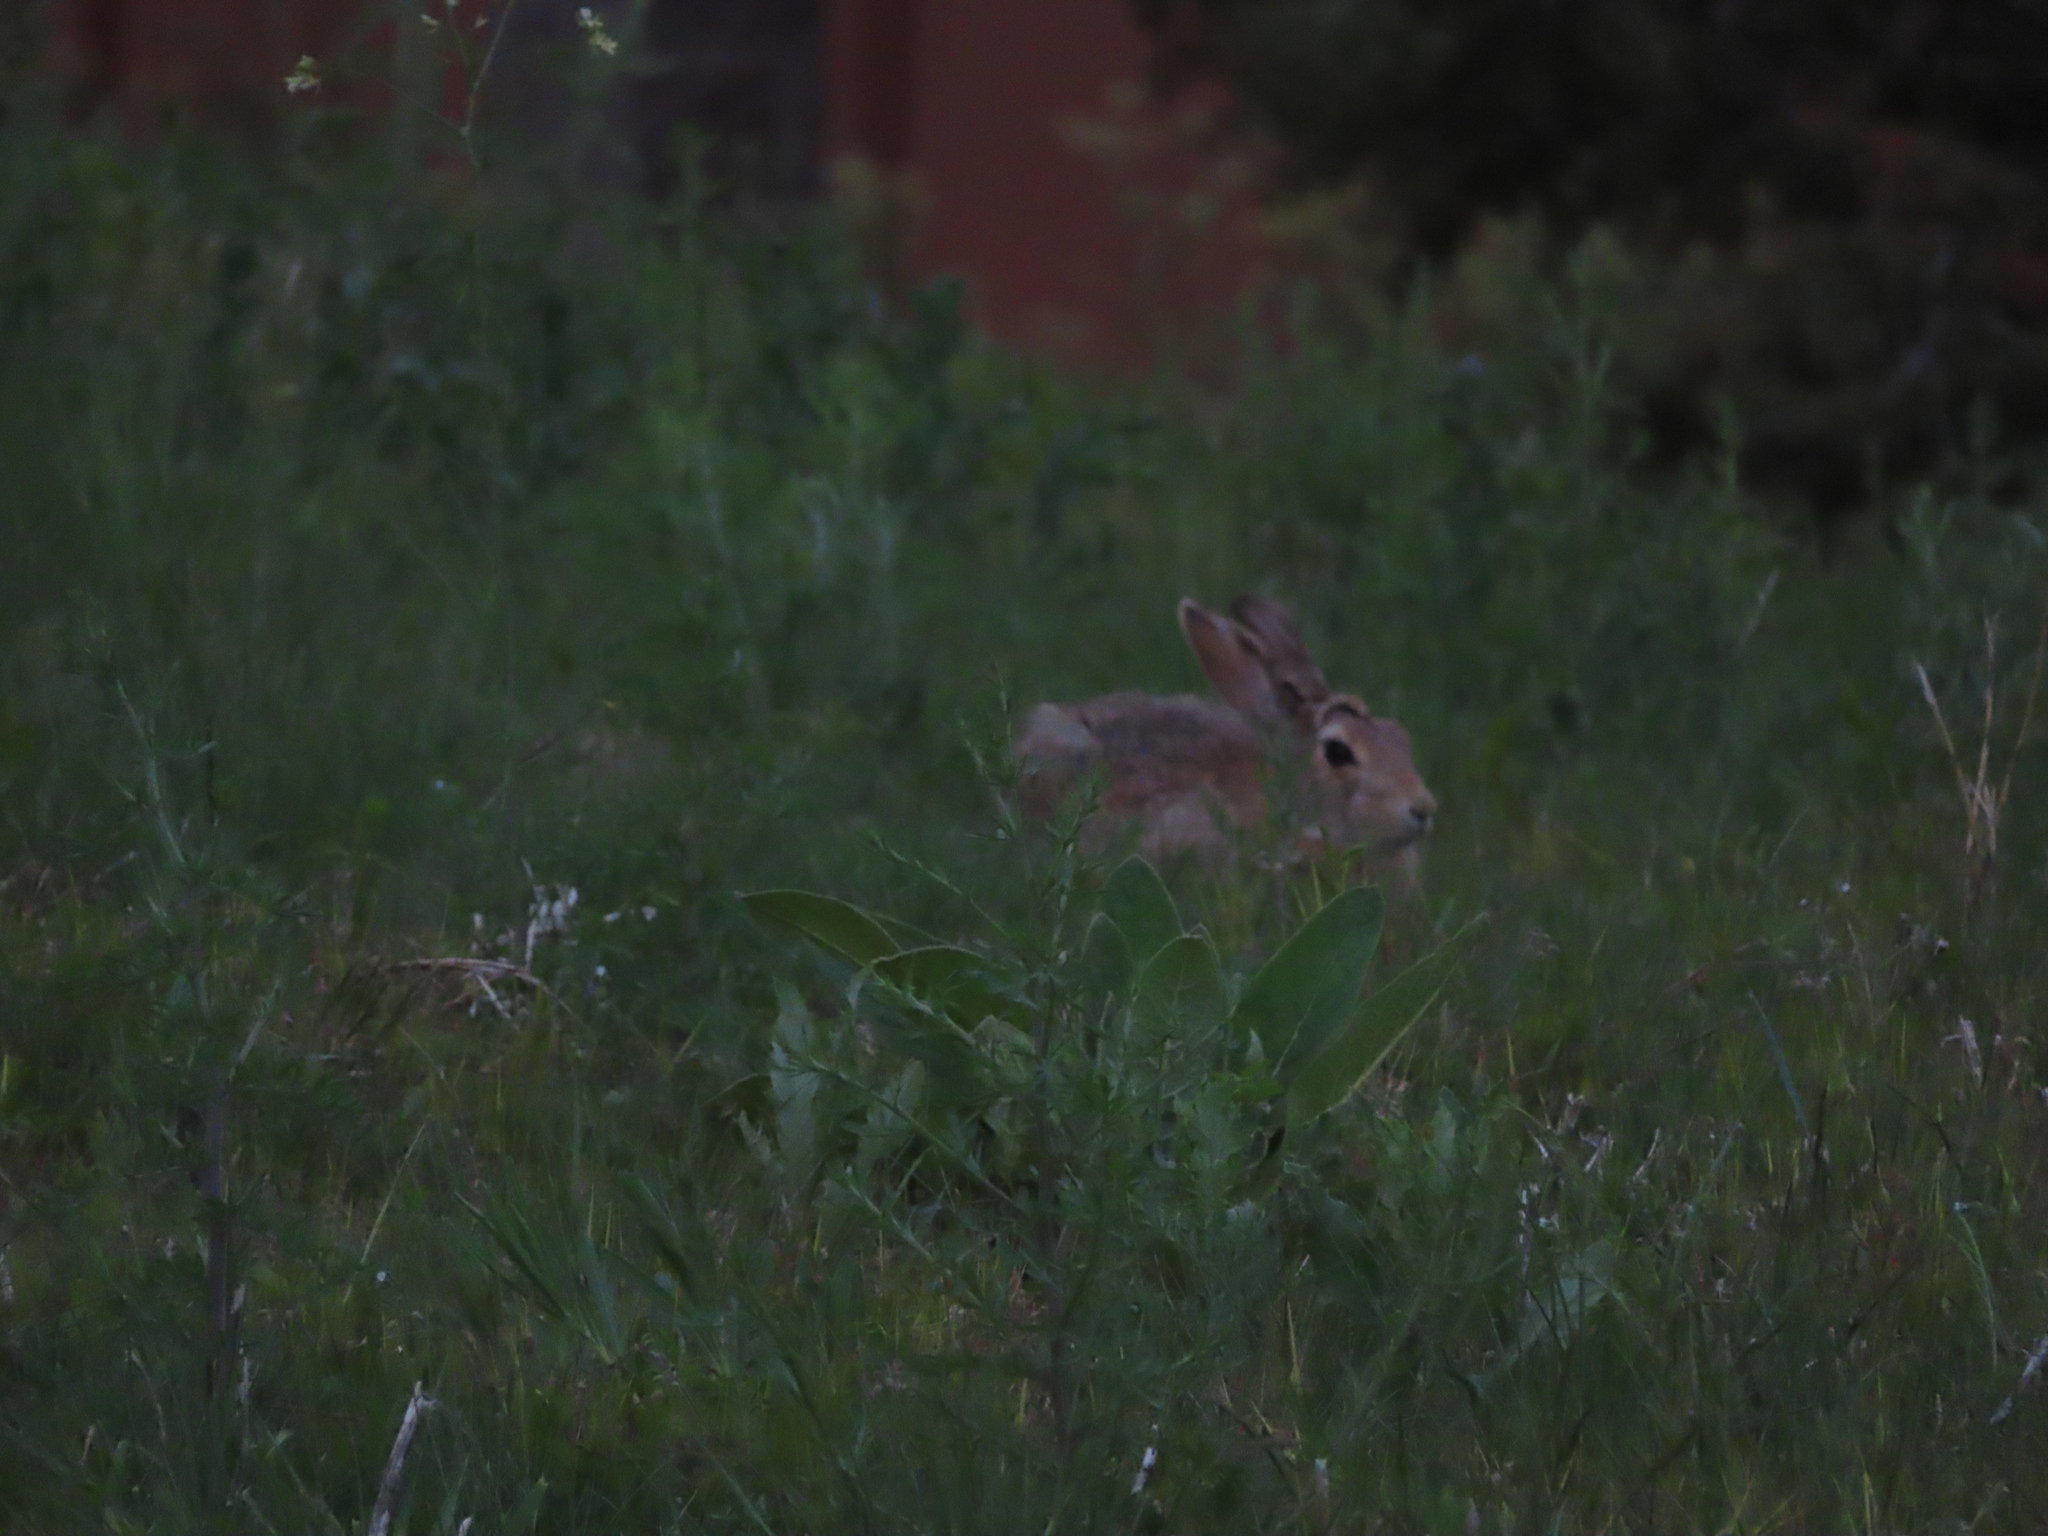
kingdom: Animalia
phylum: Chordata
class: Mammalia
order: Lagomorpha
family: Leporidae
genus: Sylvilagus
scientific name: Sylvilagus nuttallii
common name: Mountain cottontail
